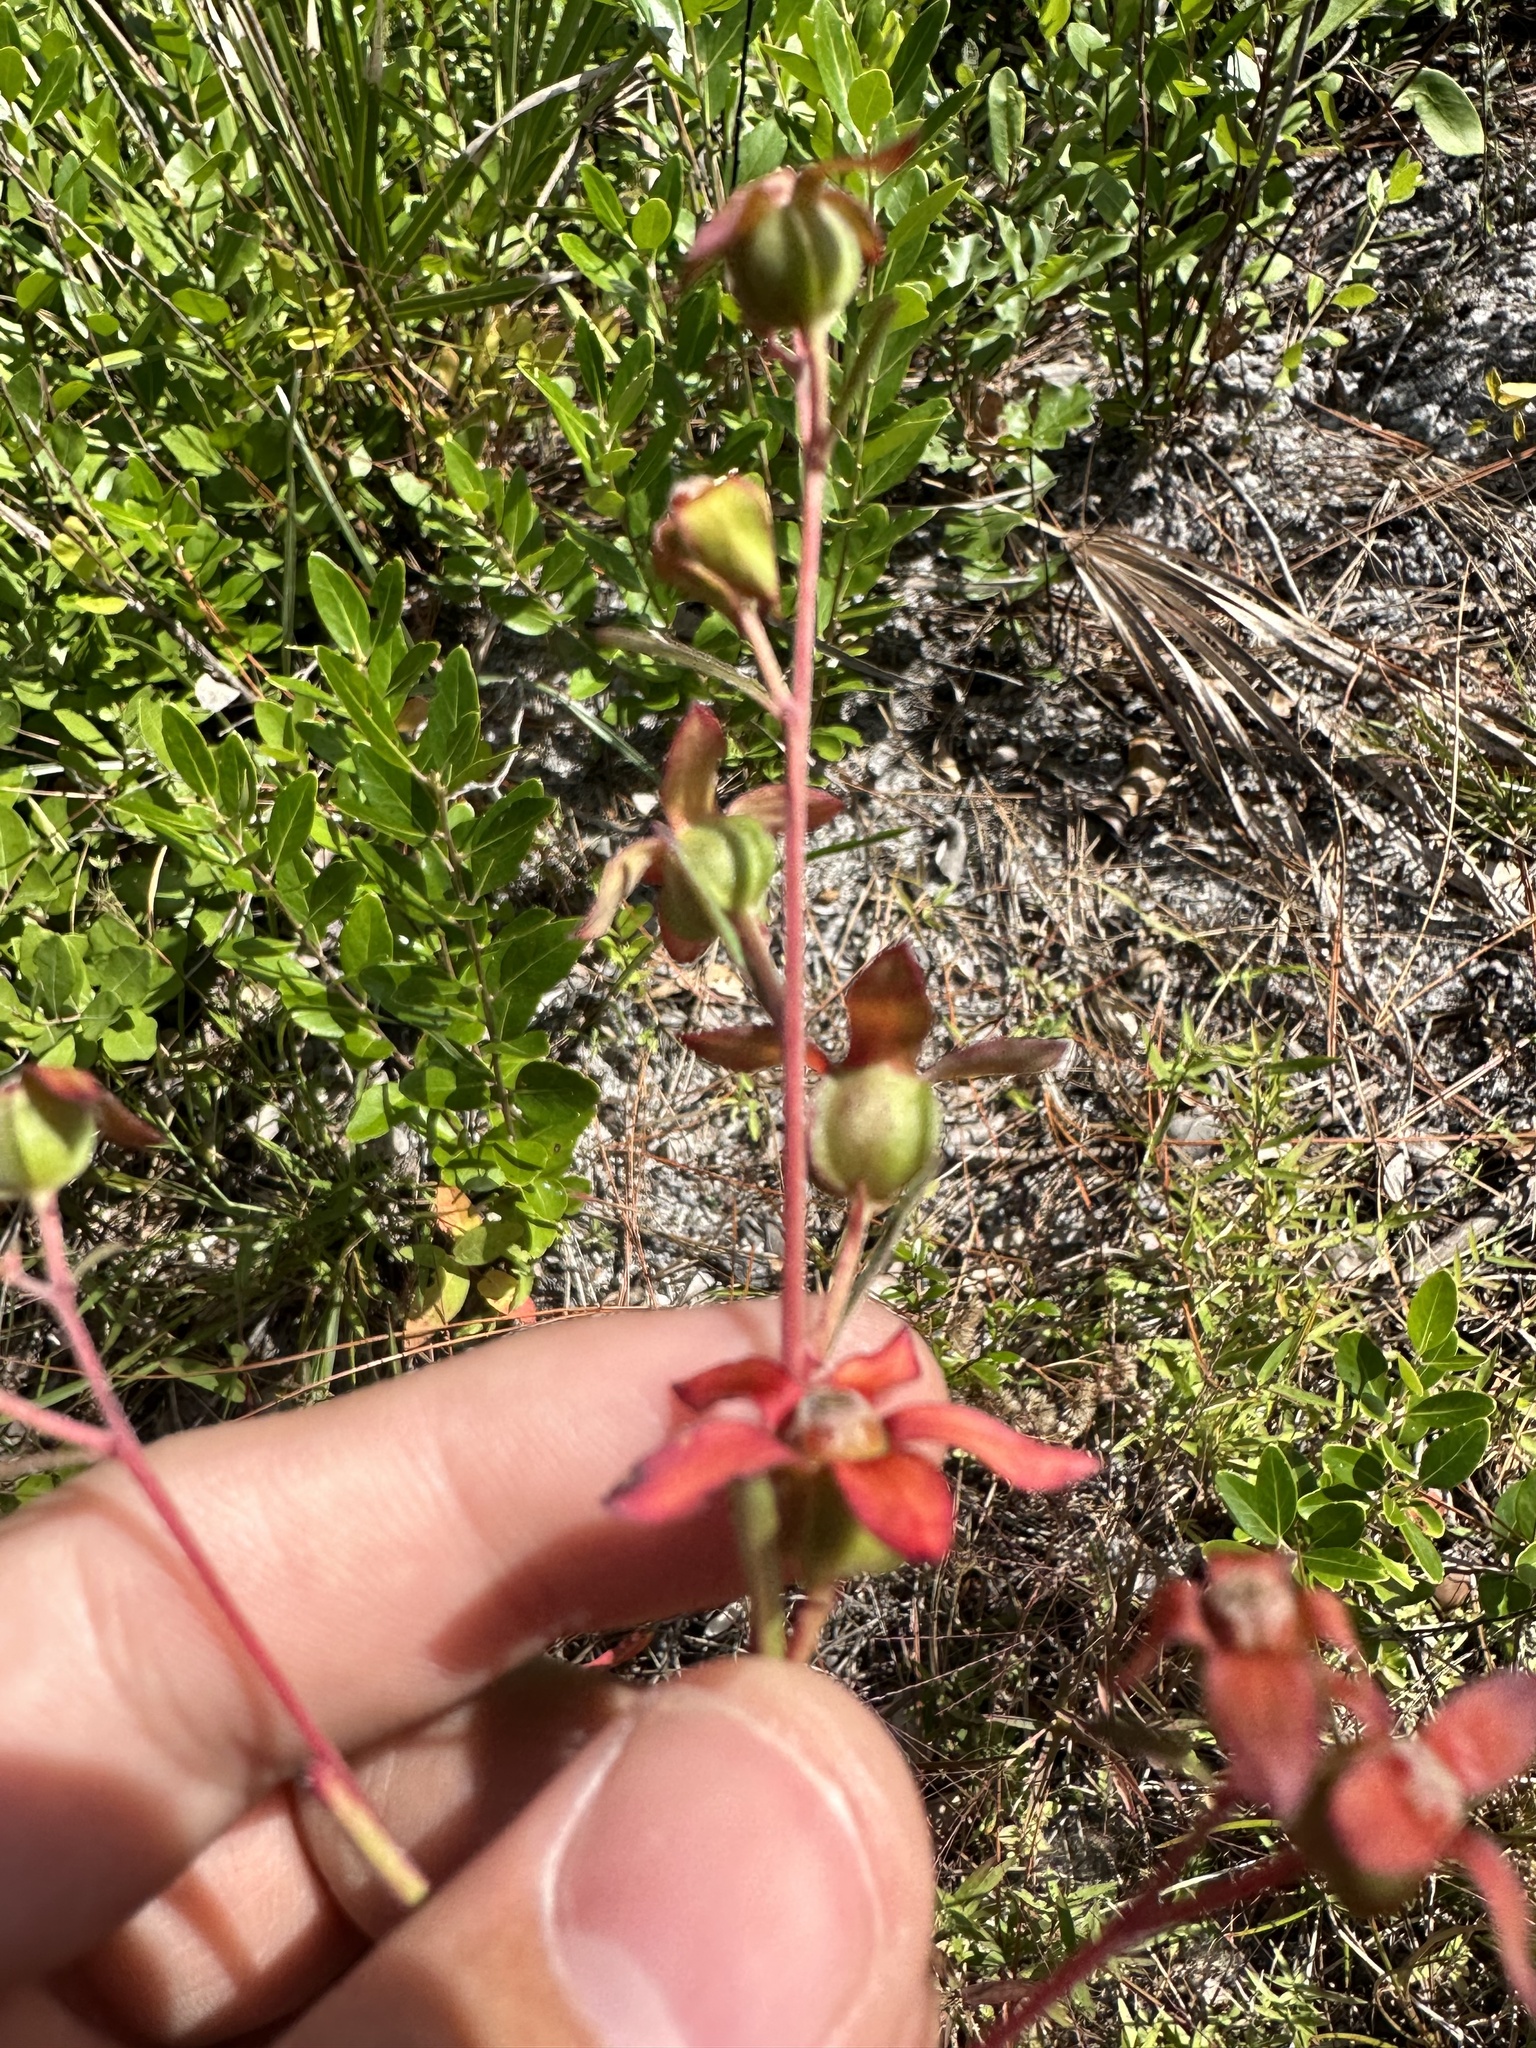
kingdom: Plantae
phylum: Tracheophyta
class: Magnoliopsida
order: Myrtales
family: Onagraceae
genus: Ludwigia
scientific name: Ludwigia maritima
